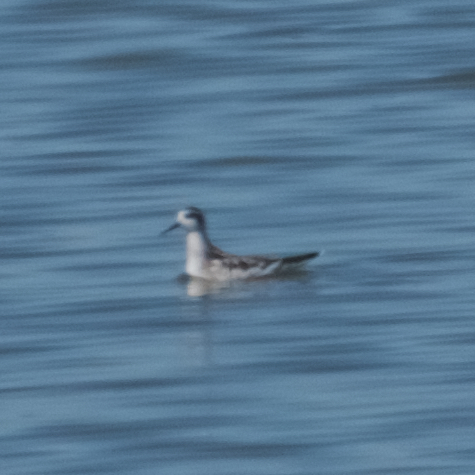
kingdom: Animalia
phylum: Chordata
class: Aves
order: Charadriiformes
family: Scolopacidae
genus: Phalaropus
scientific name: Phalaropus lobatus
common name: Red-necked phalarope
